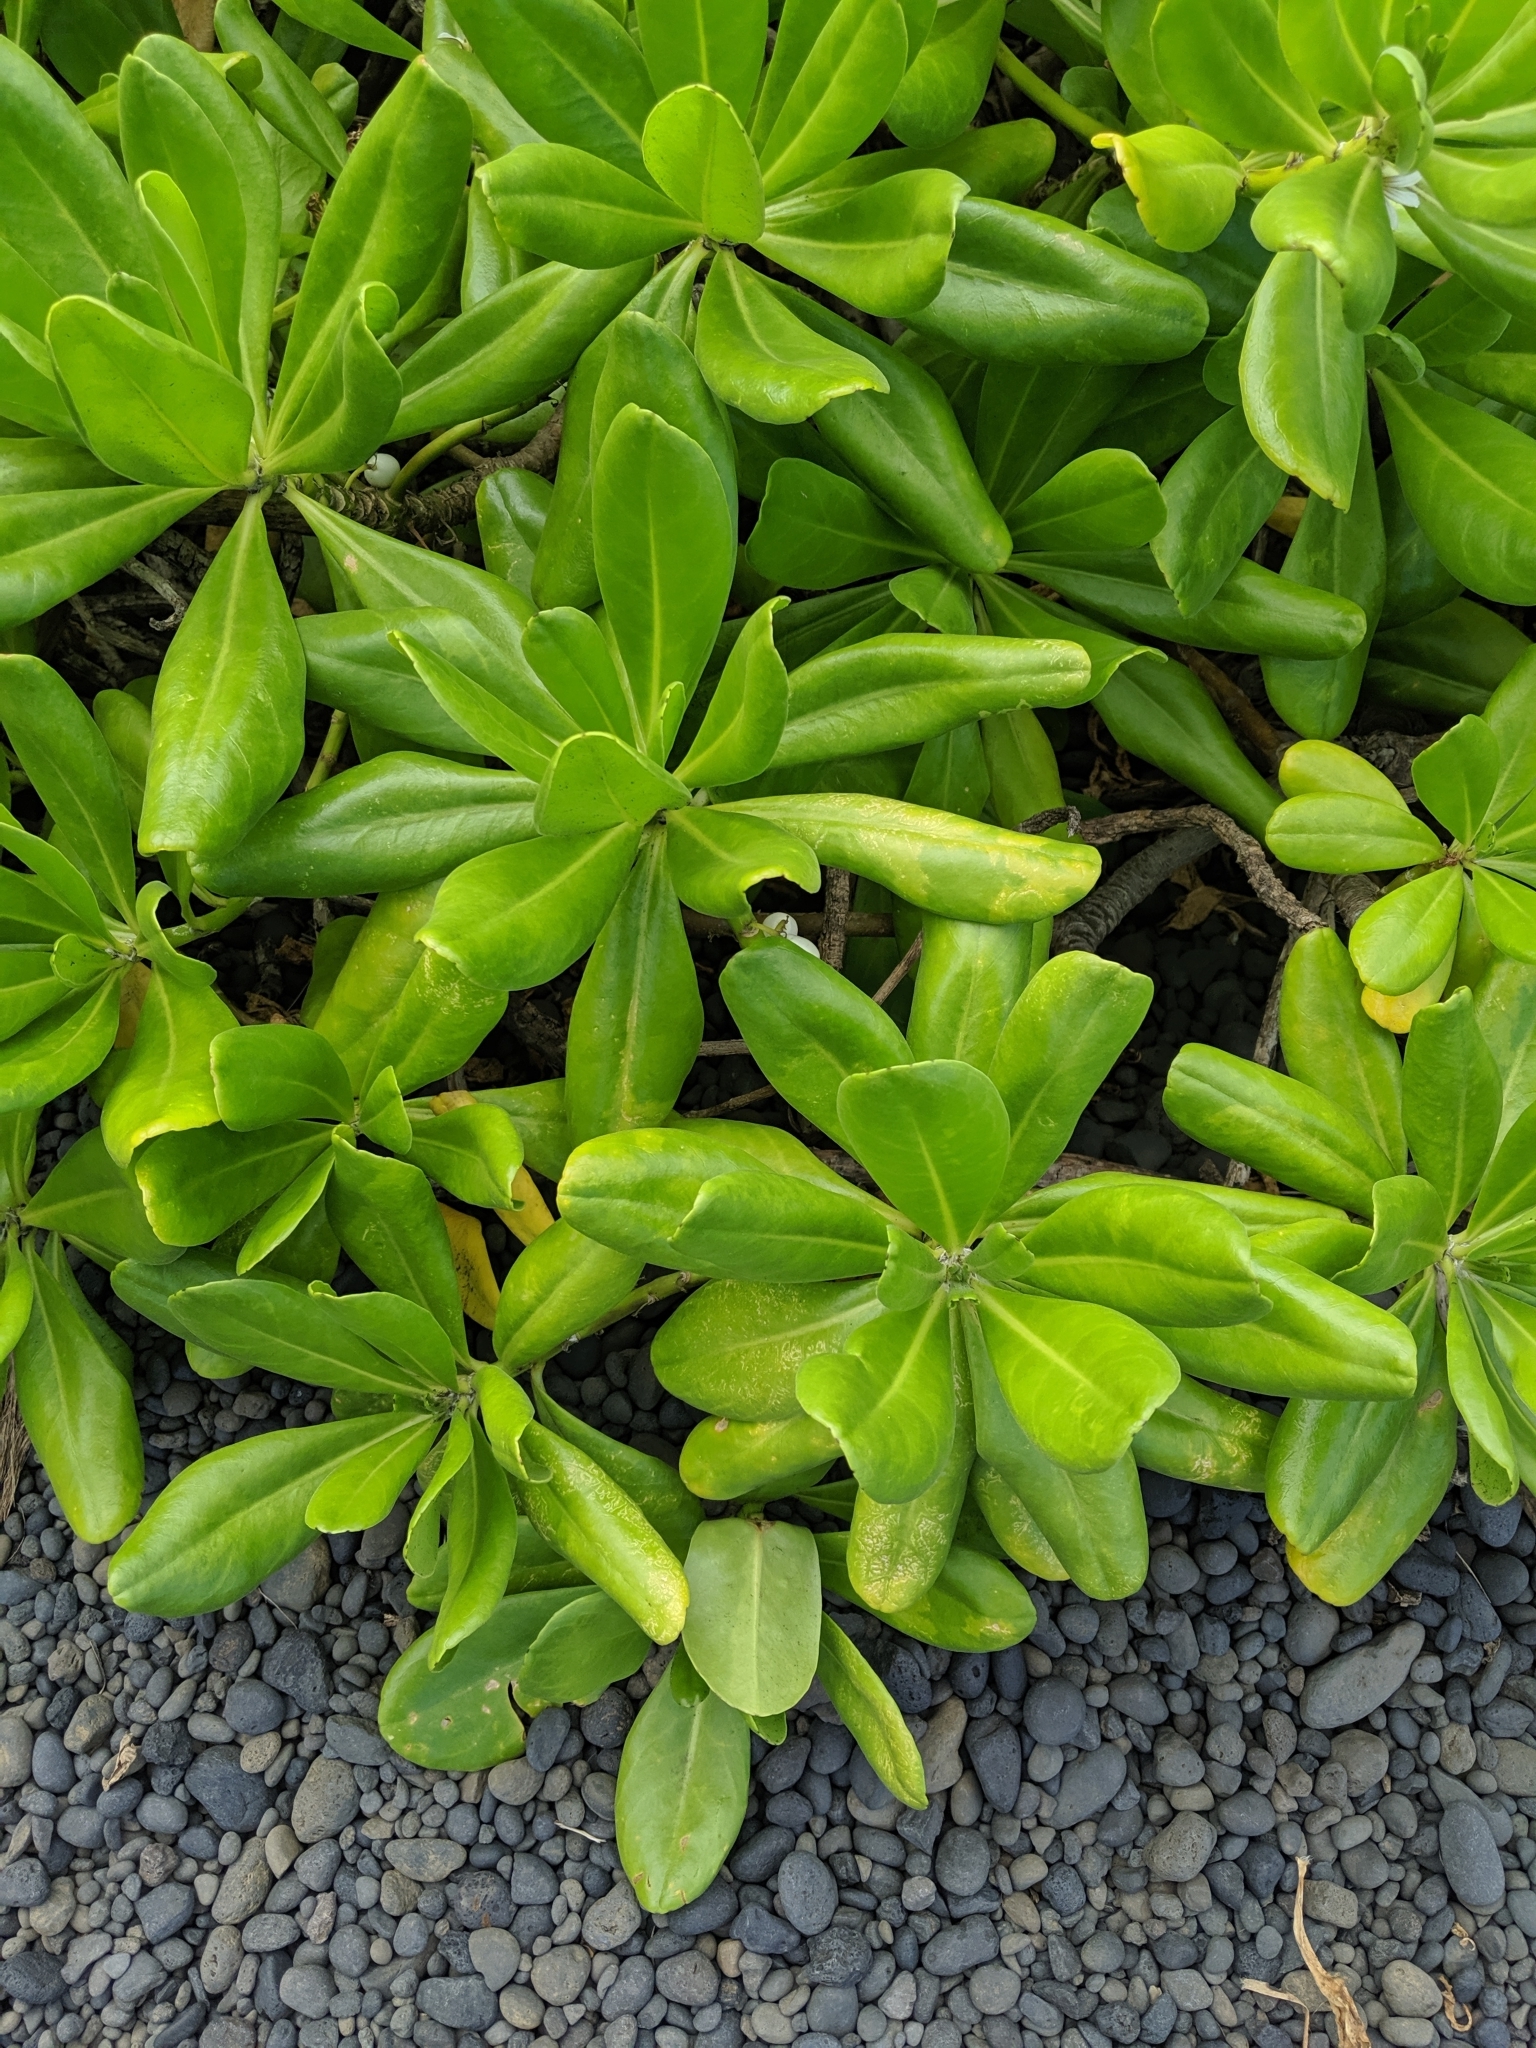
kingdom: Plantae
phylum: Tracheophyta
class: Magnoliopsida
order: Asterales
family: Goodeniaceae
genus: Scaevola
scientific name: Scaevola taccada
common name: Sea lettucetree
